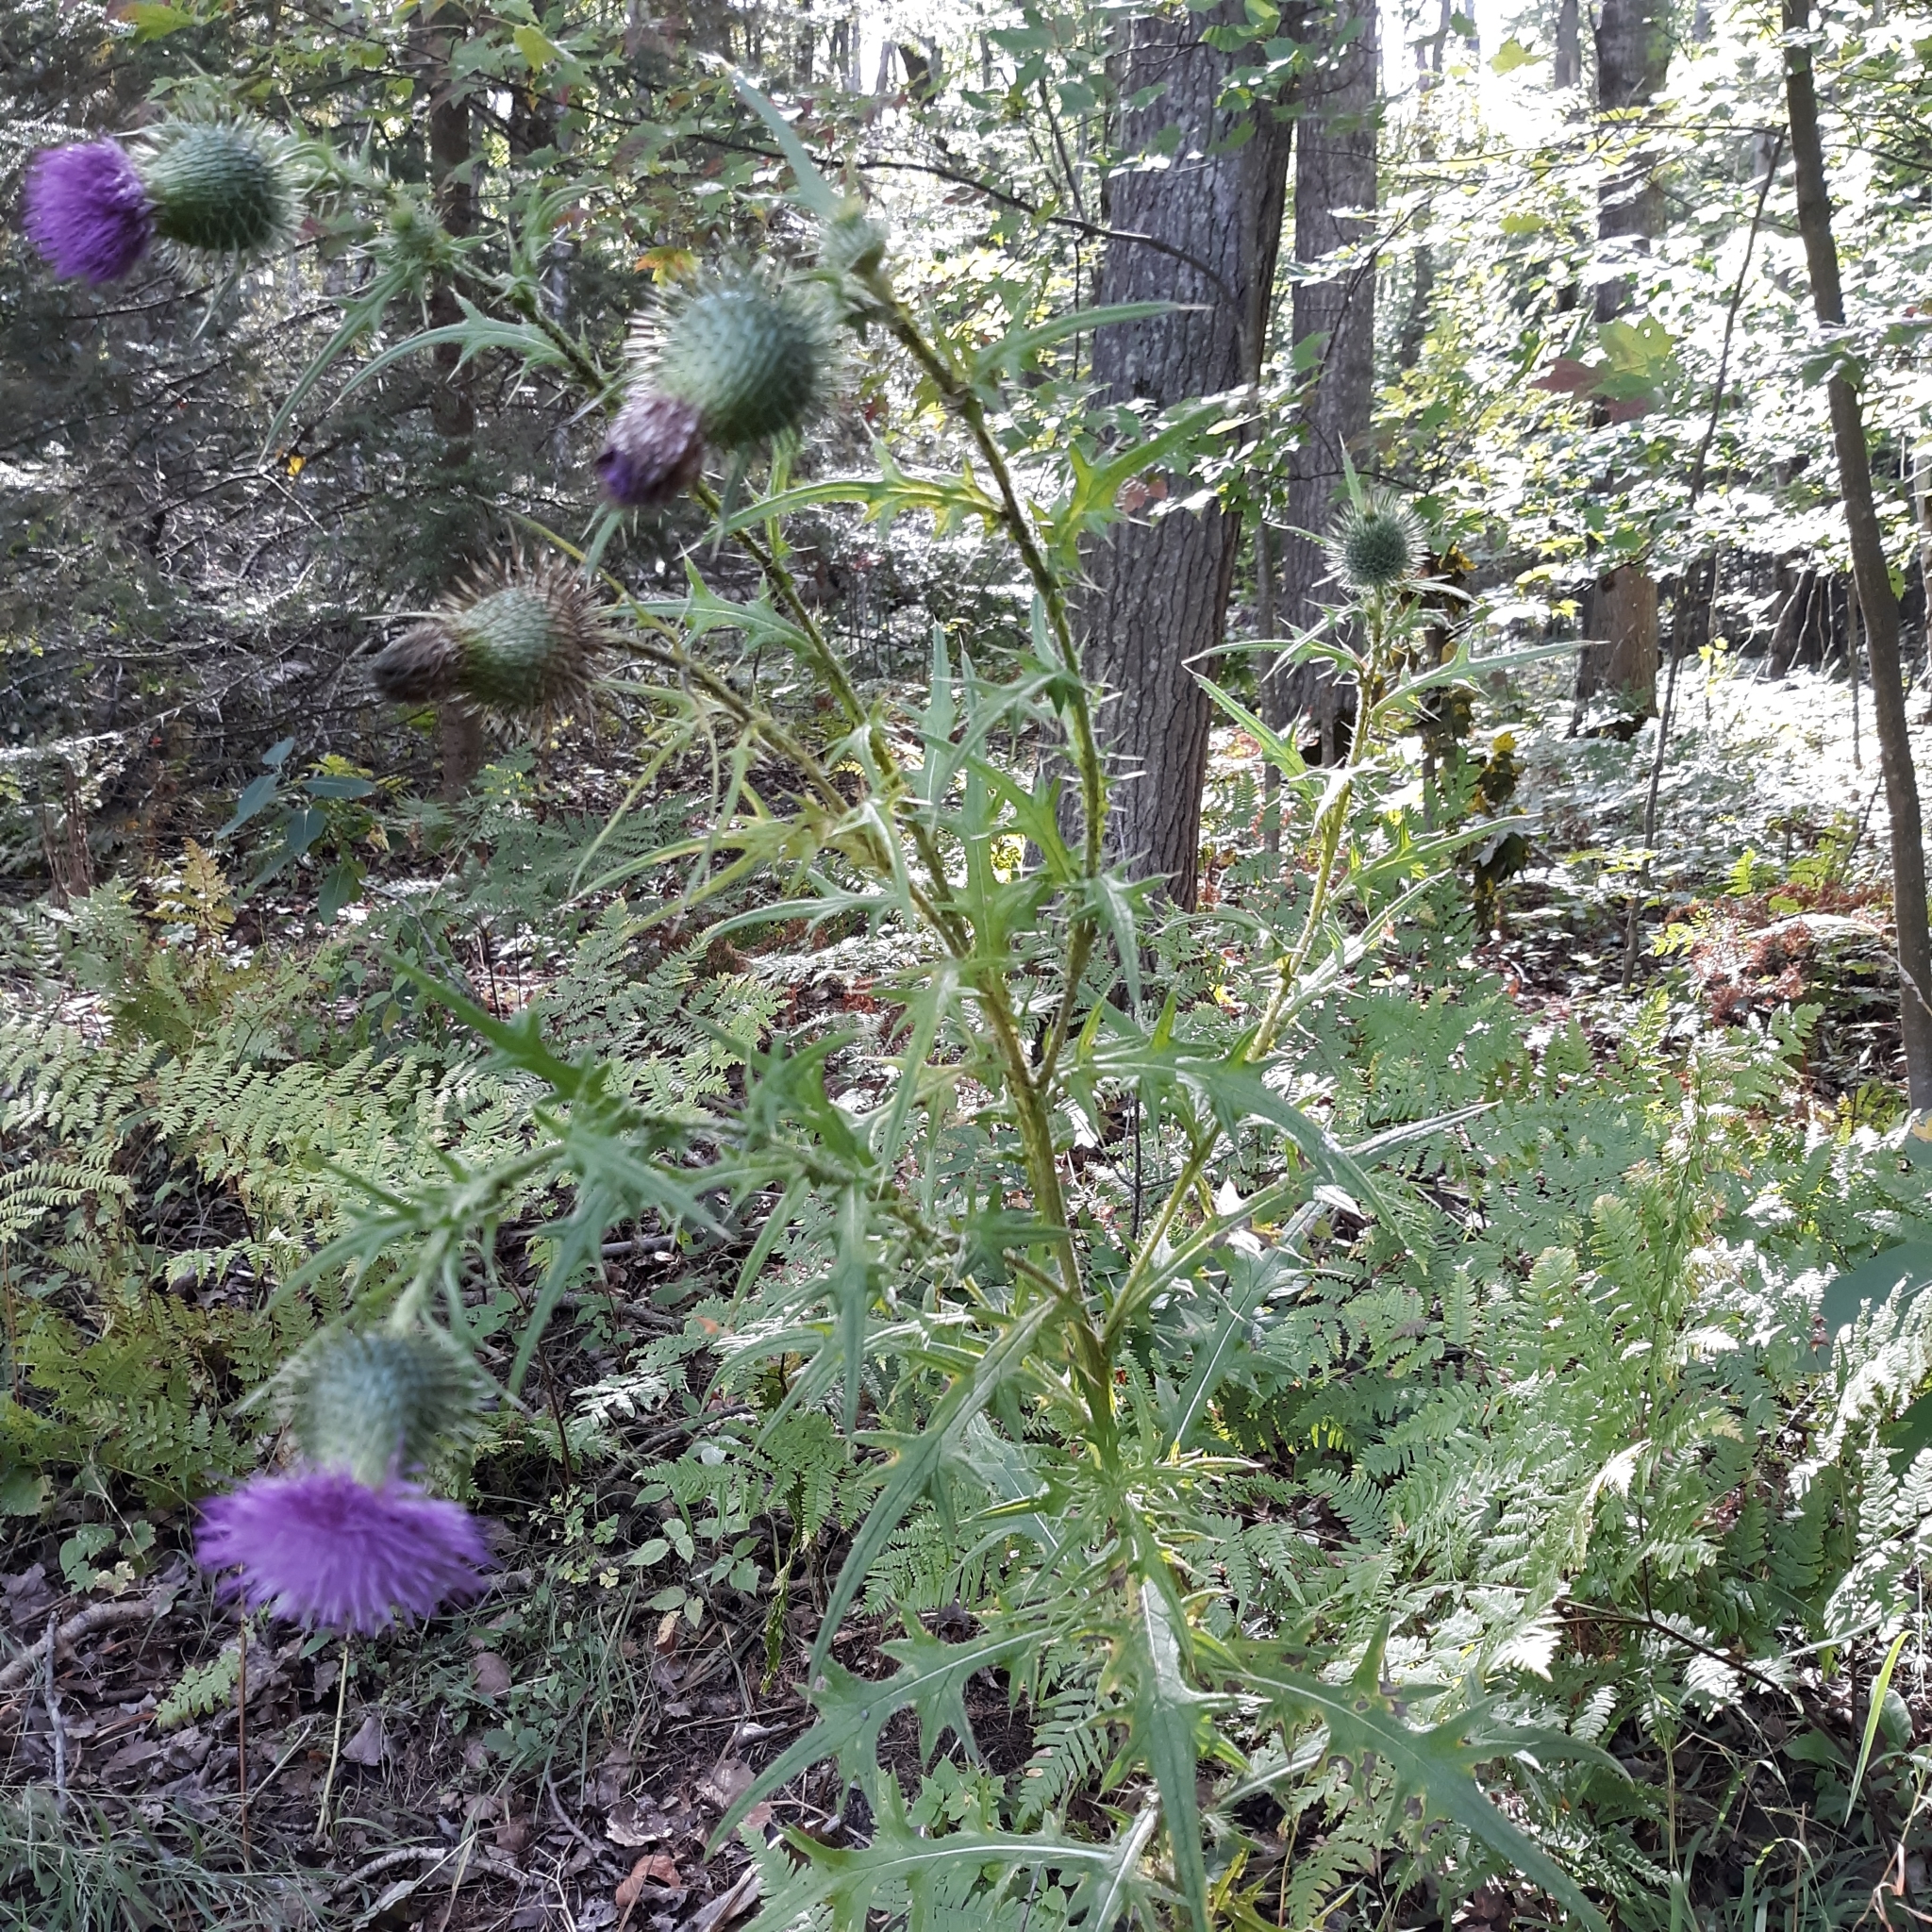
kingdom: Plantae
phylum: Tracheophyta
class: Magnoliopsida
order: Asterales
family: Asteraceae
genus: Cirsium
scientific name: Cirsium vulgare
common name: Bull thistle
